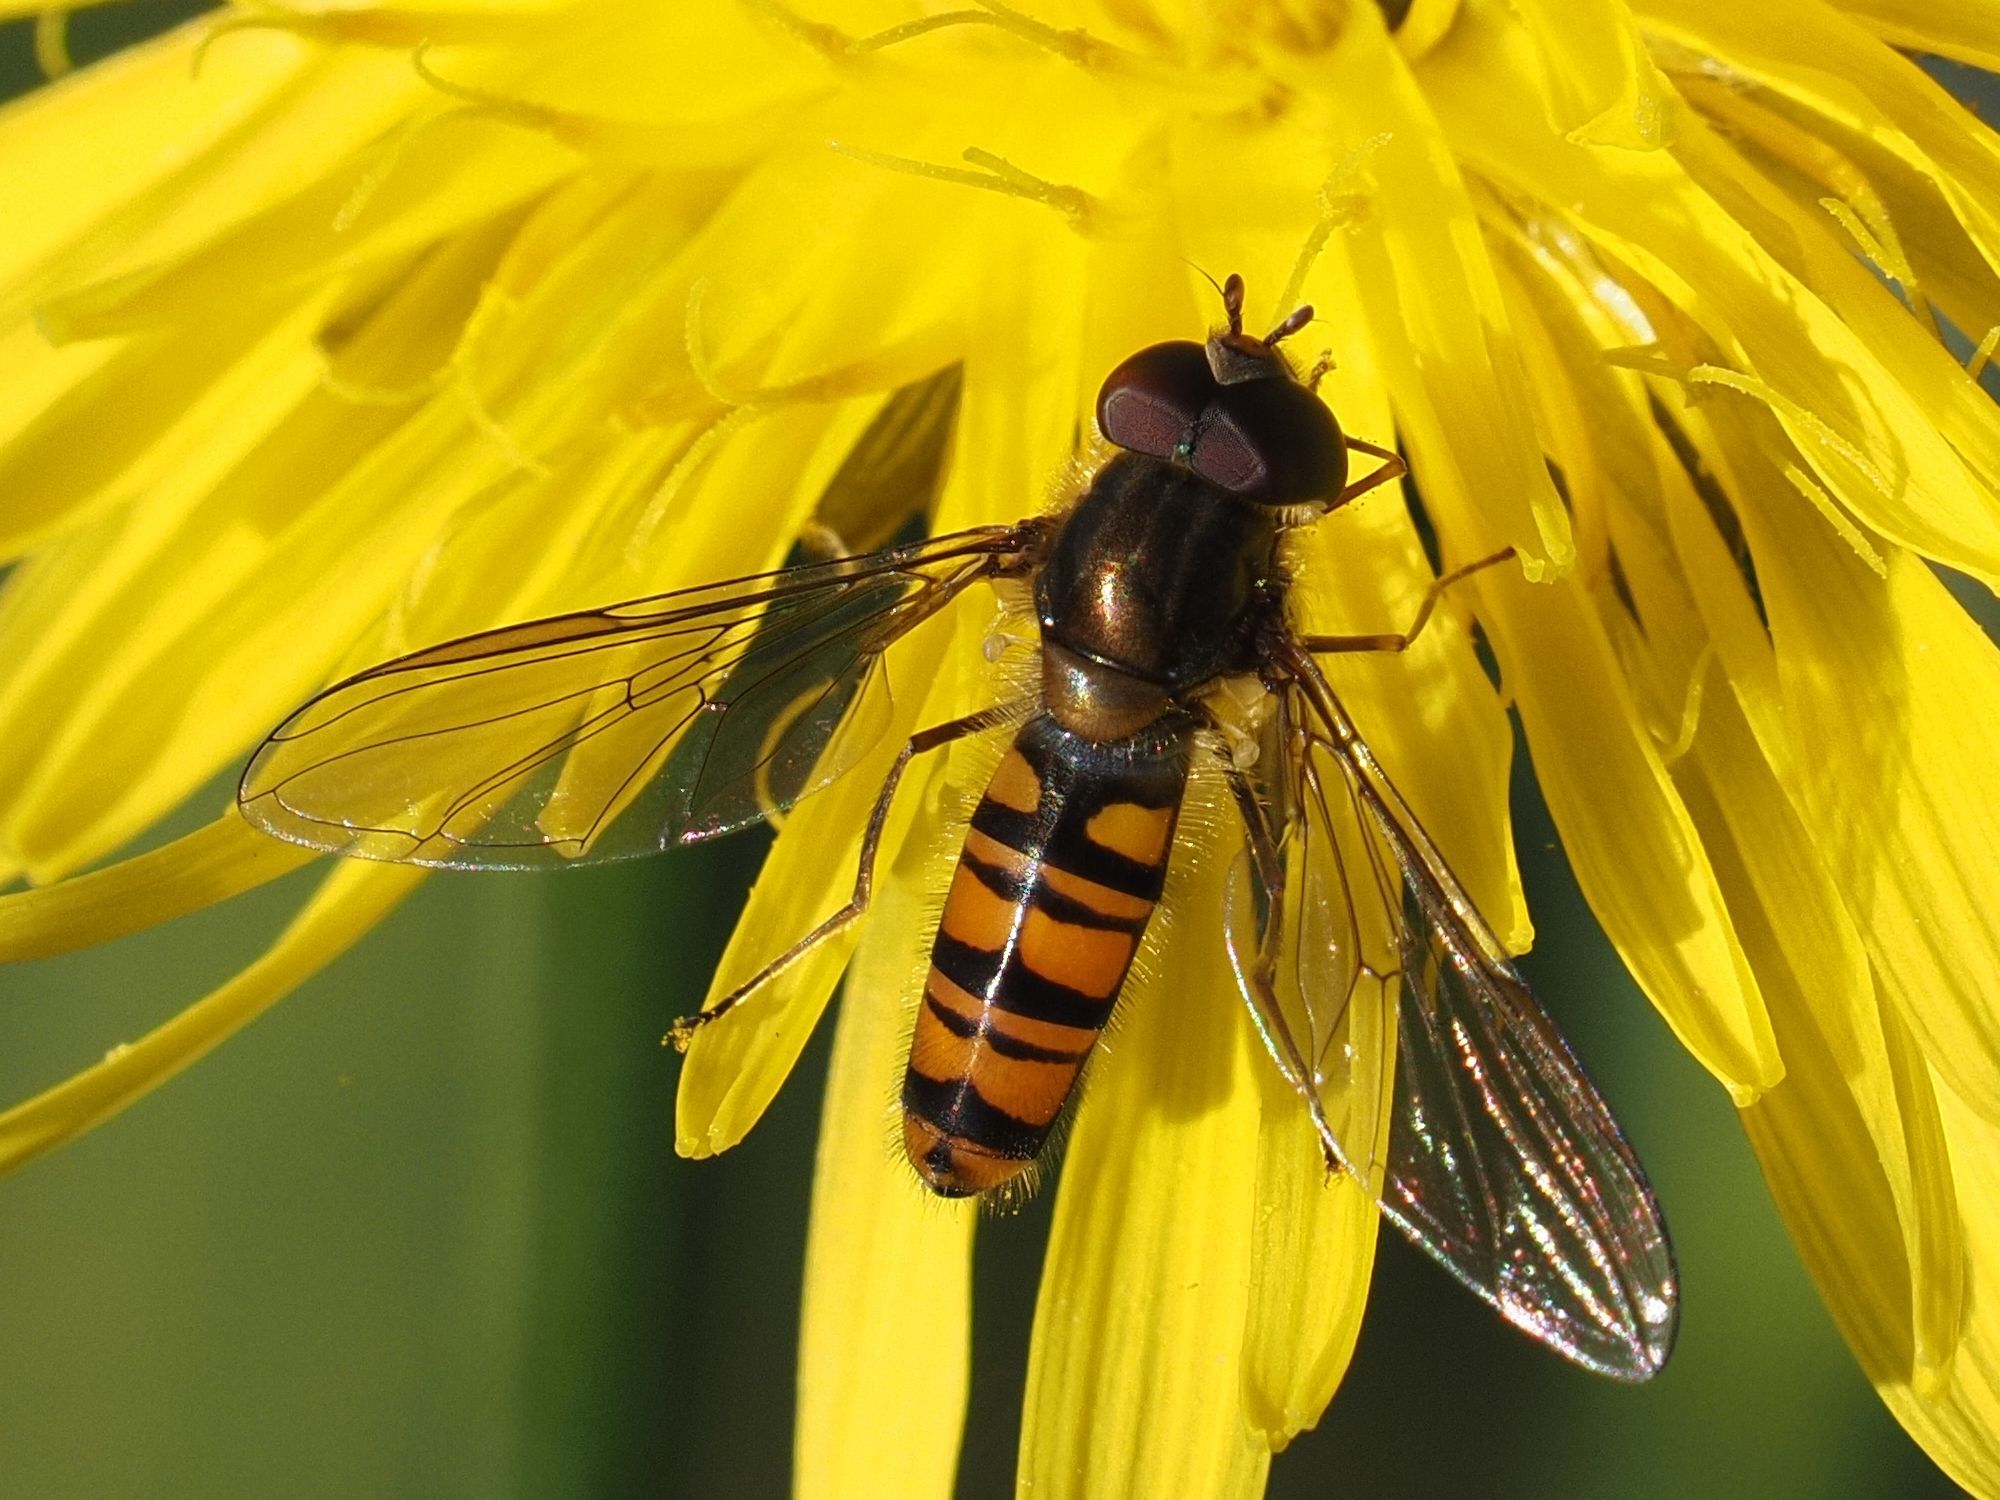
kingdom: Animalia
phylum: Arthropoda
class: Insecta
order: Diptera
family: Syrphidae
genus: Episyrphus
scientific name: Episyrphus balteatus
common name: Marmalade hoverfly
